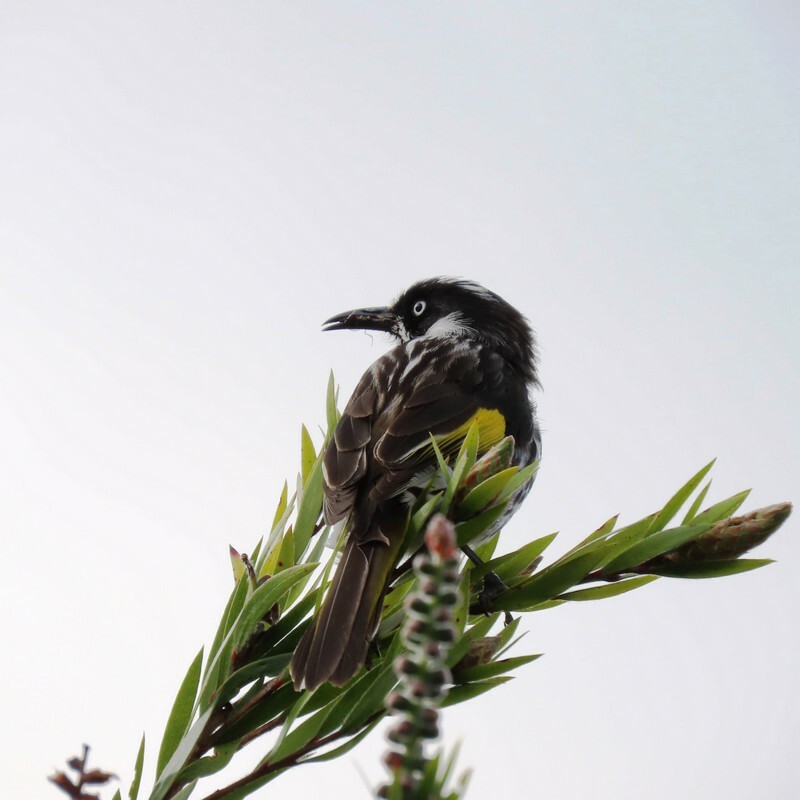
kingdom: Animalia
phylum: Chordata
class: Aves
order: Passeriformes
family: Meliphagidae
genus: Phylidonyris
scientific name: Phylidonyris novaehollandiae
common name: New holland honeyeater
